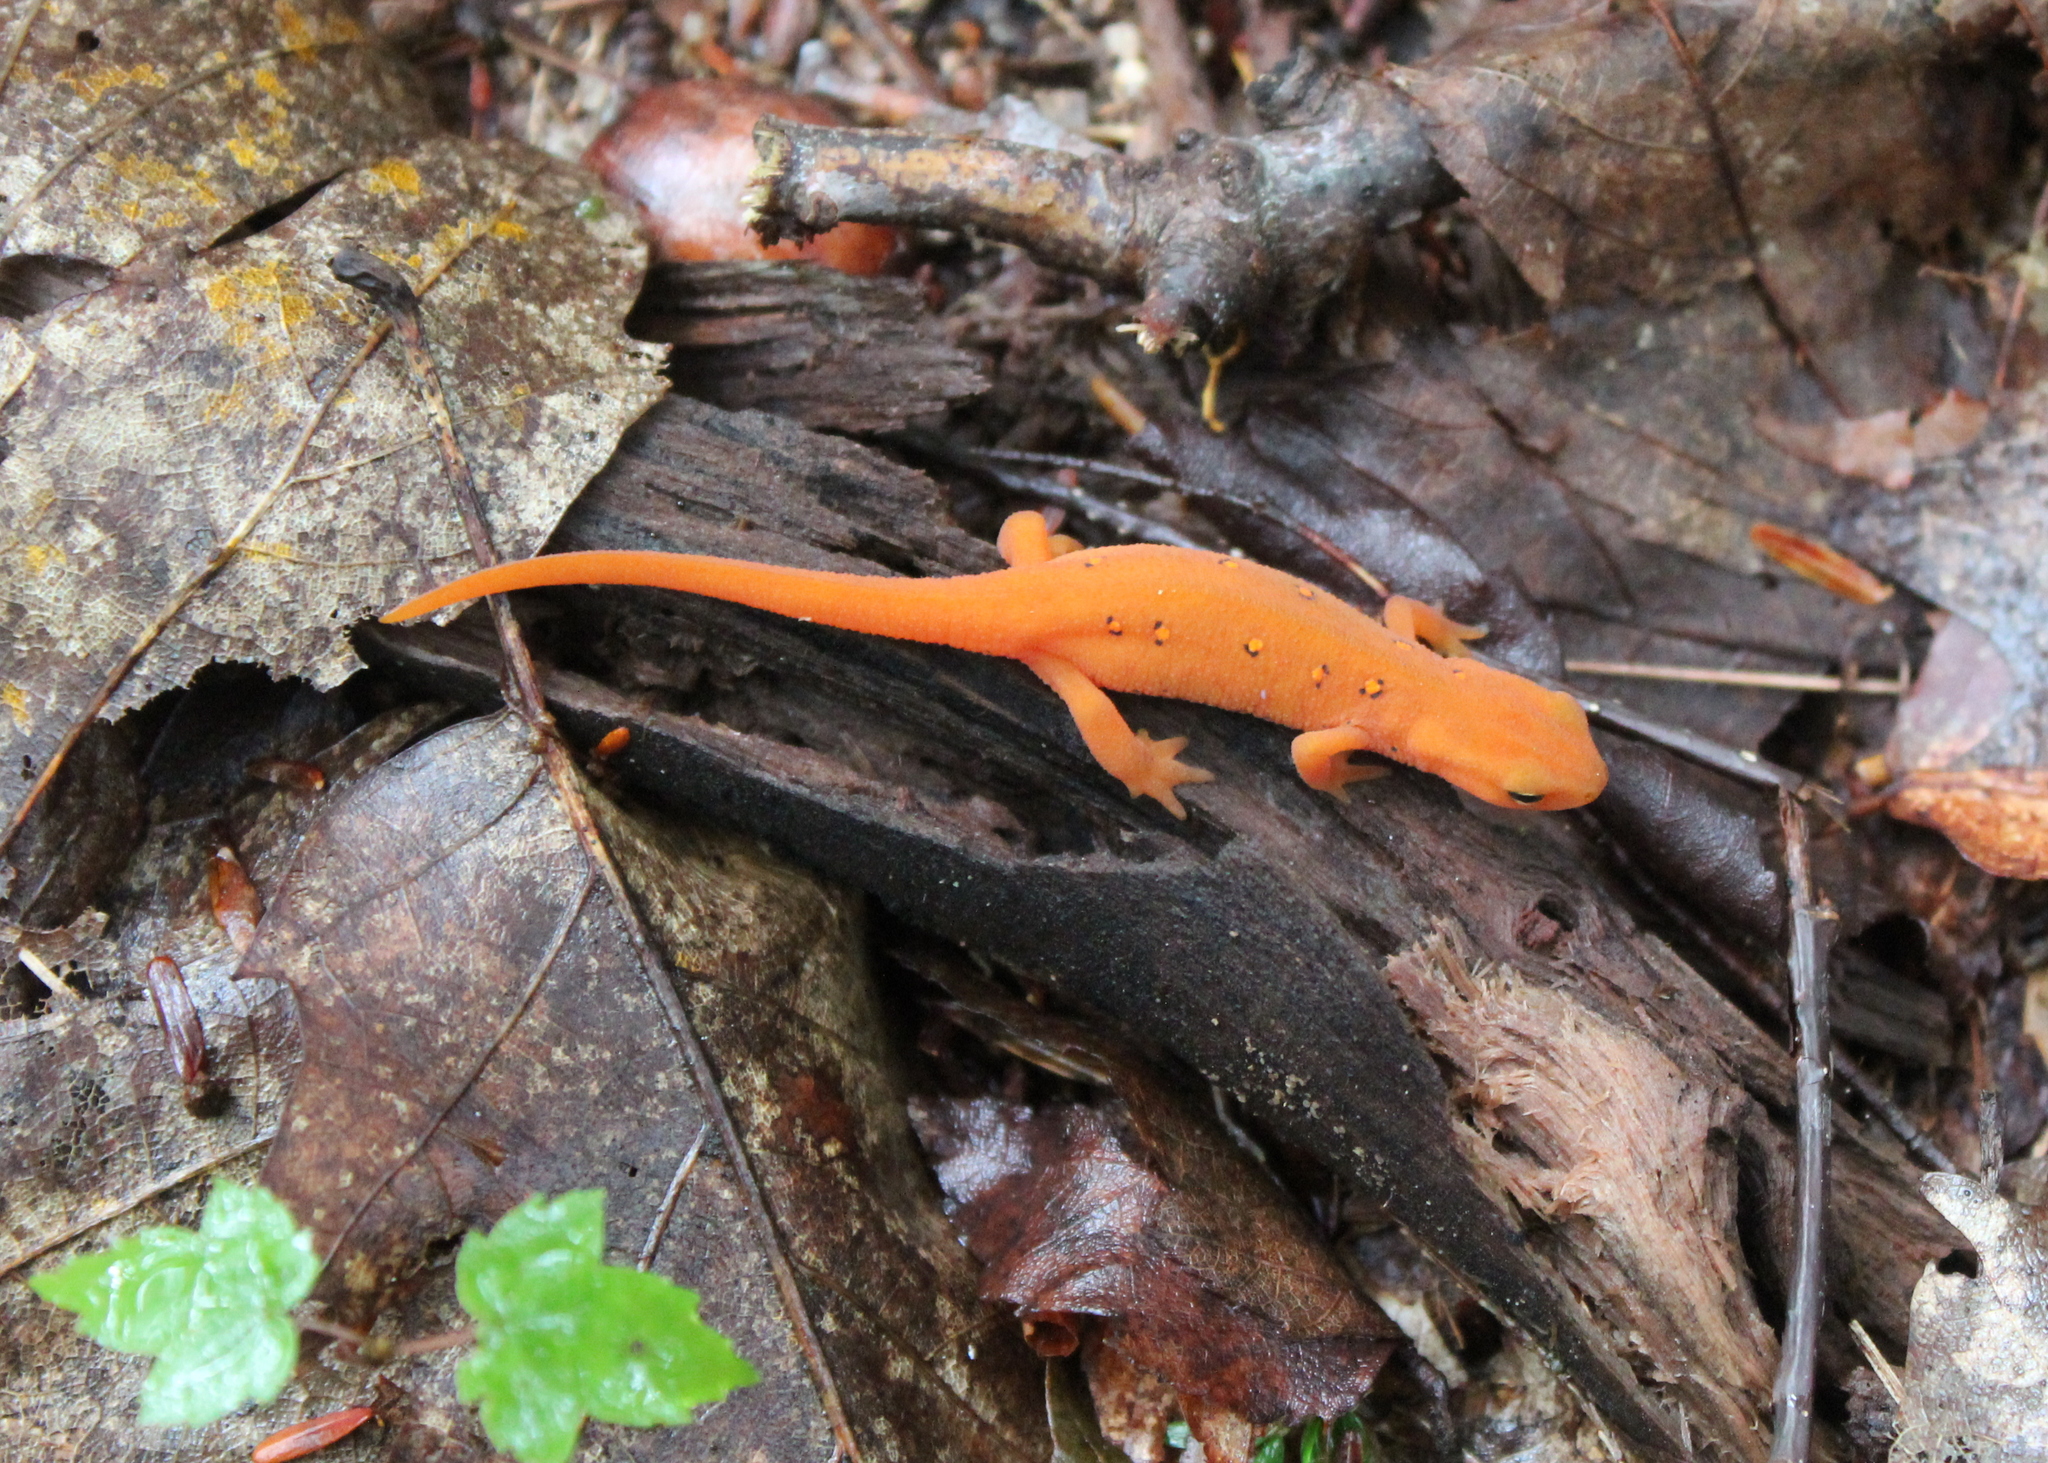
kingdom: Animalia
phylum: Chordata
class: Amphibia
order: Caudata
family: Salamandridae
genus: Notophthalmus
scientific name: Notophthalmus viridescens
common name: Eastern newt
